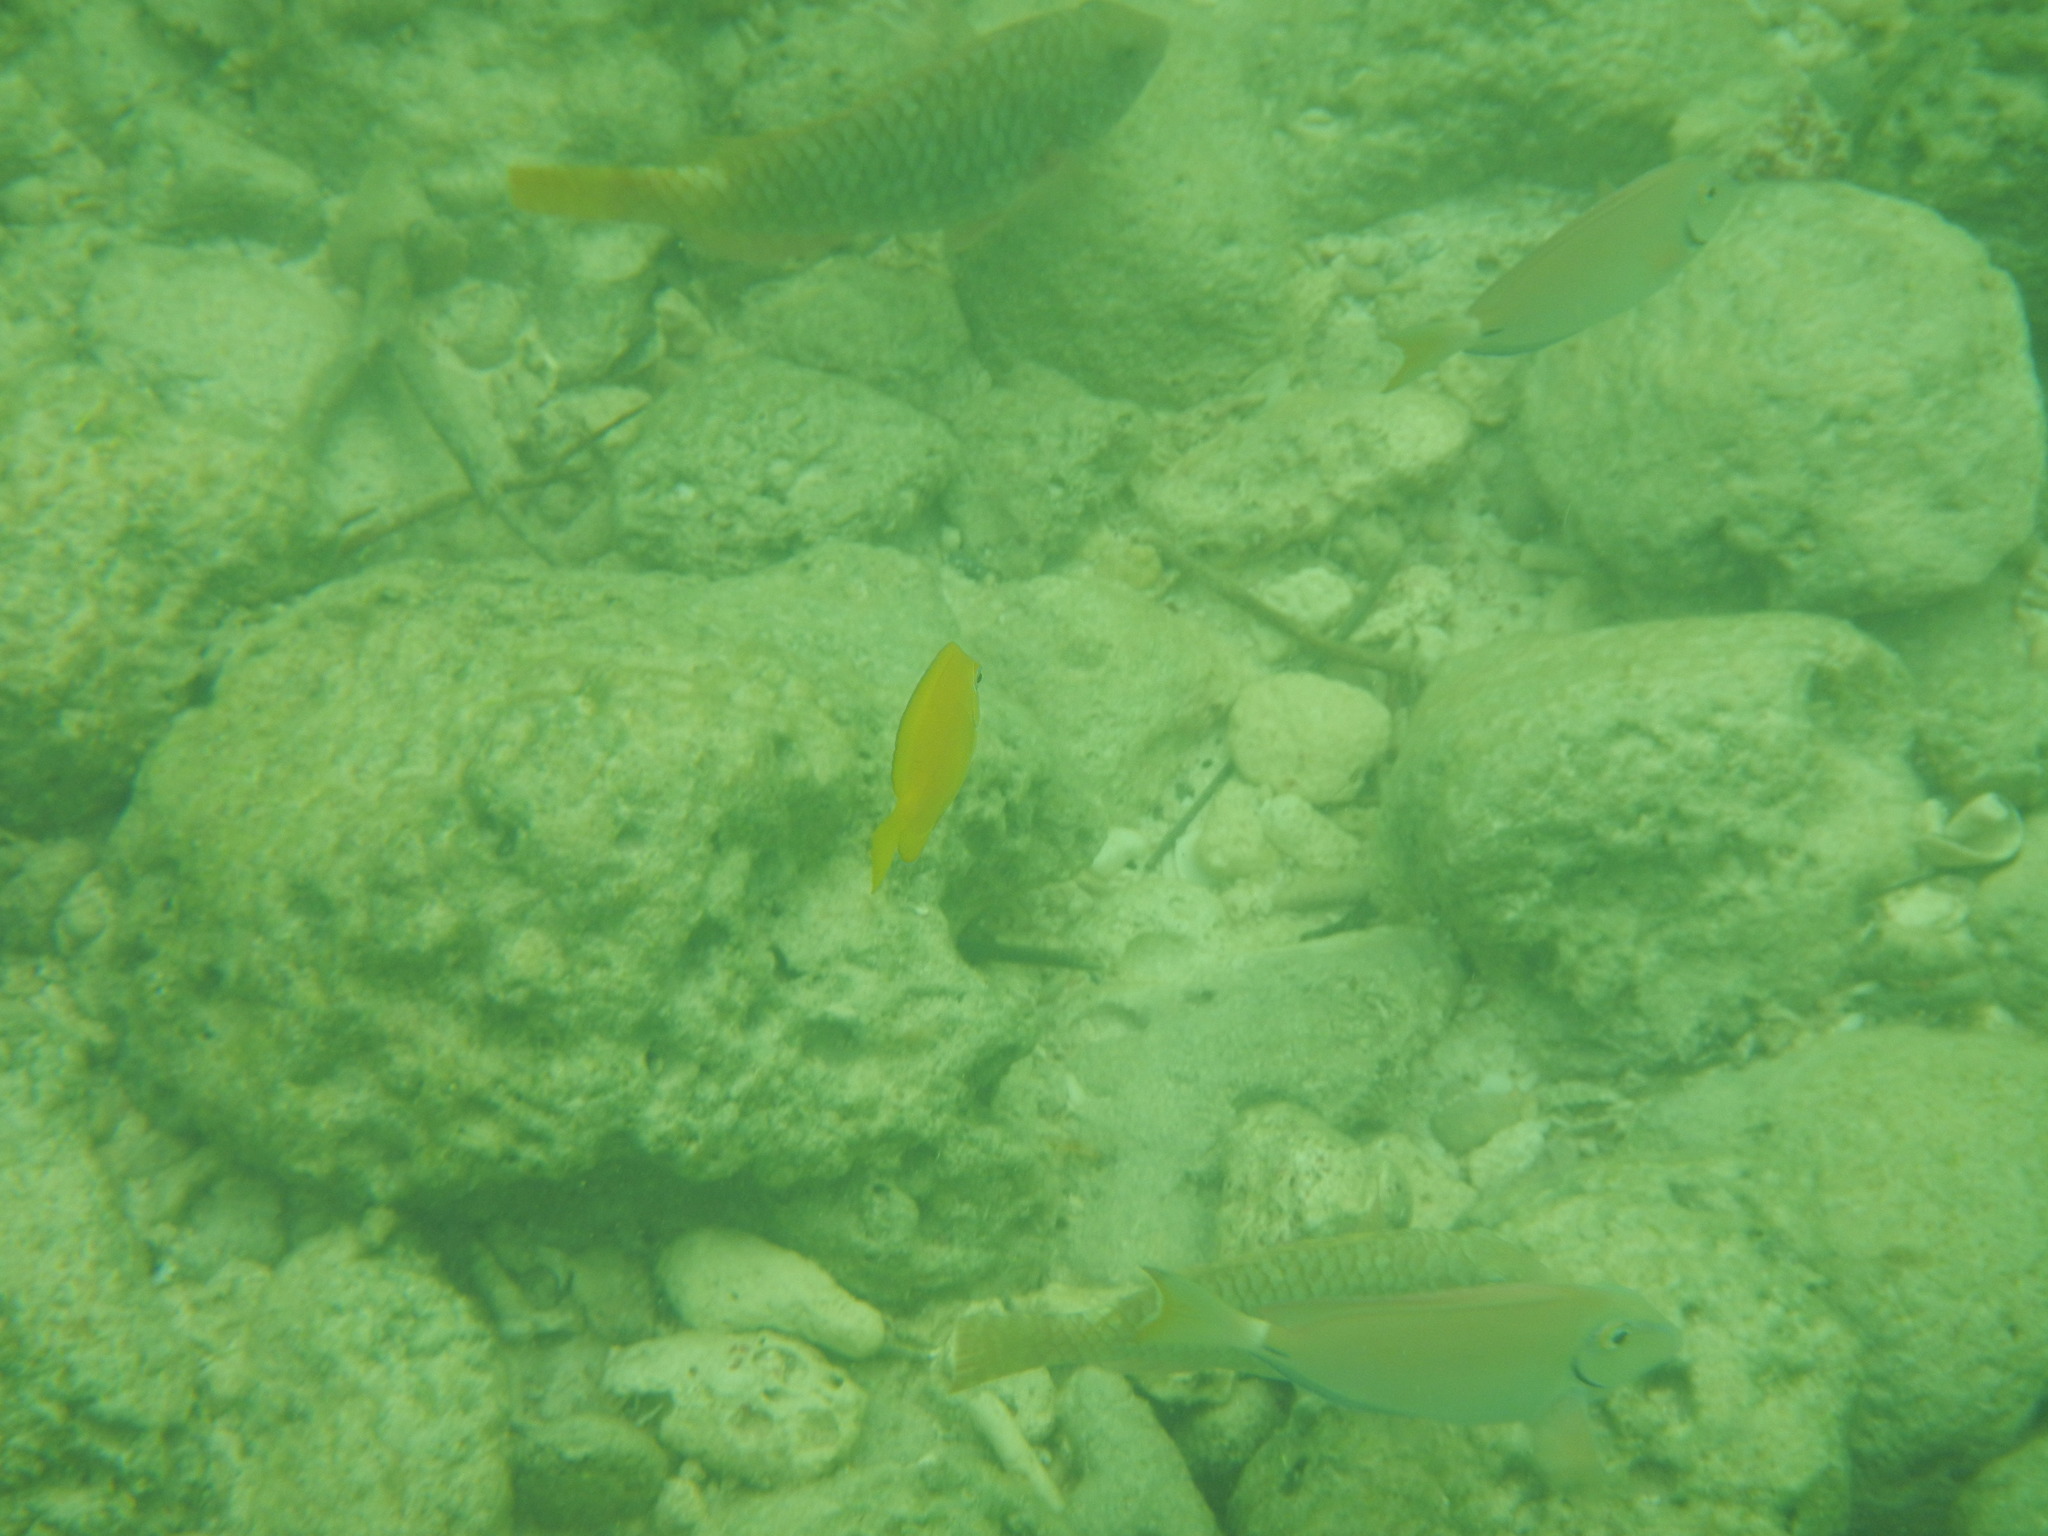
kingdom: Animalia
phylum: Chordata
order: Perciformes
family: Acanthuridae
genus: Acanthurus
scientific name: Acanthurus bahianus
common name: Ocean surgeon
